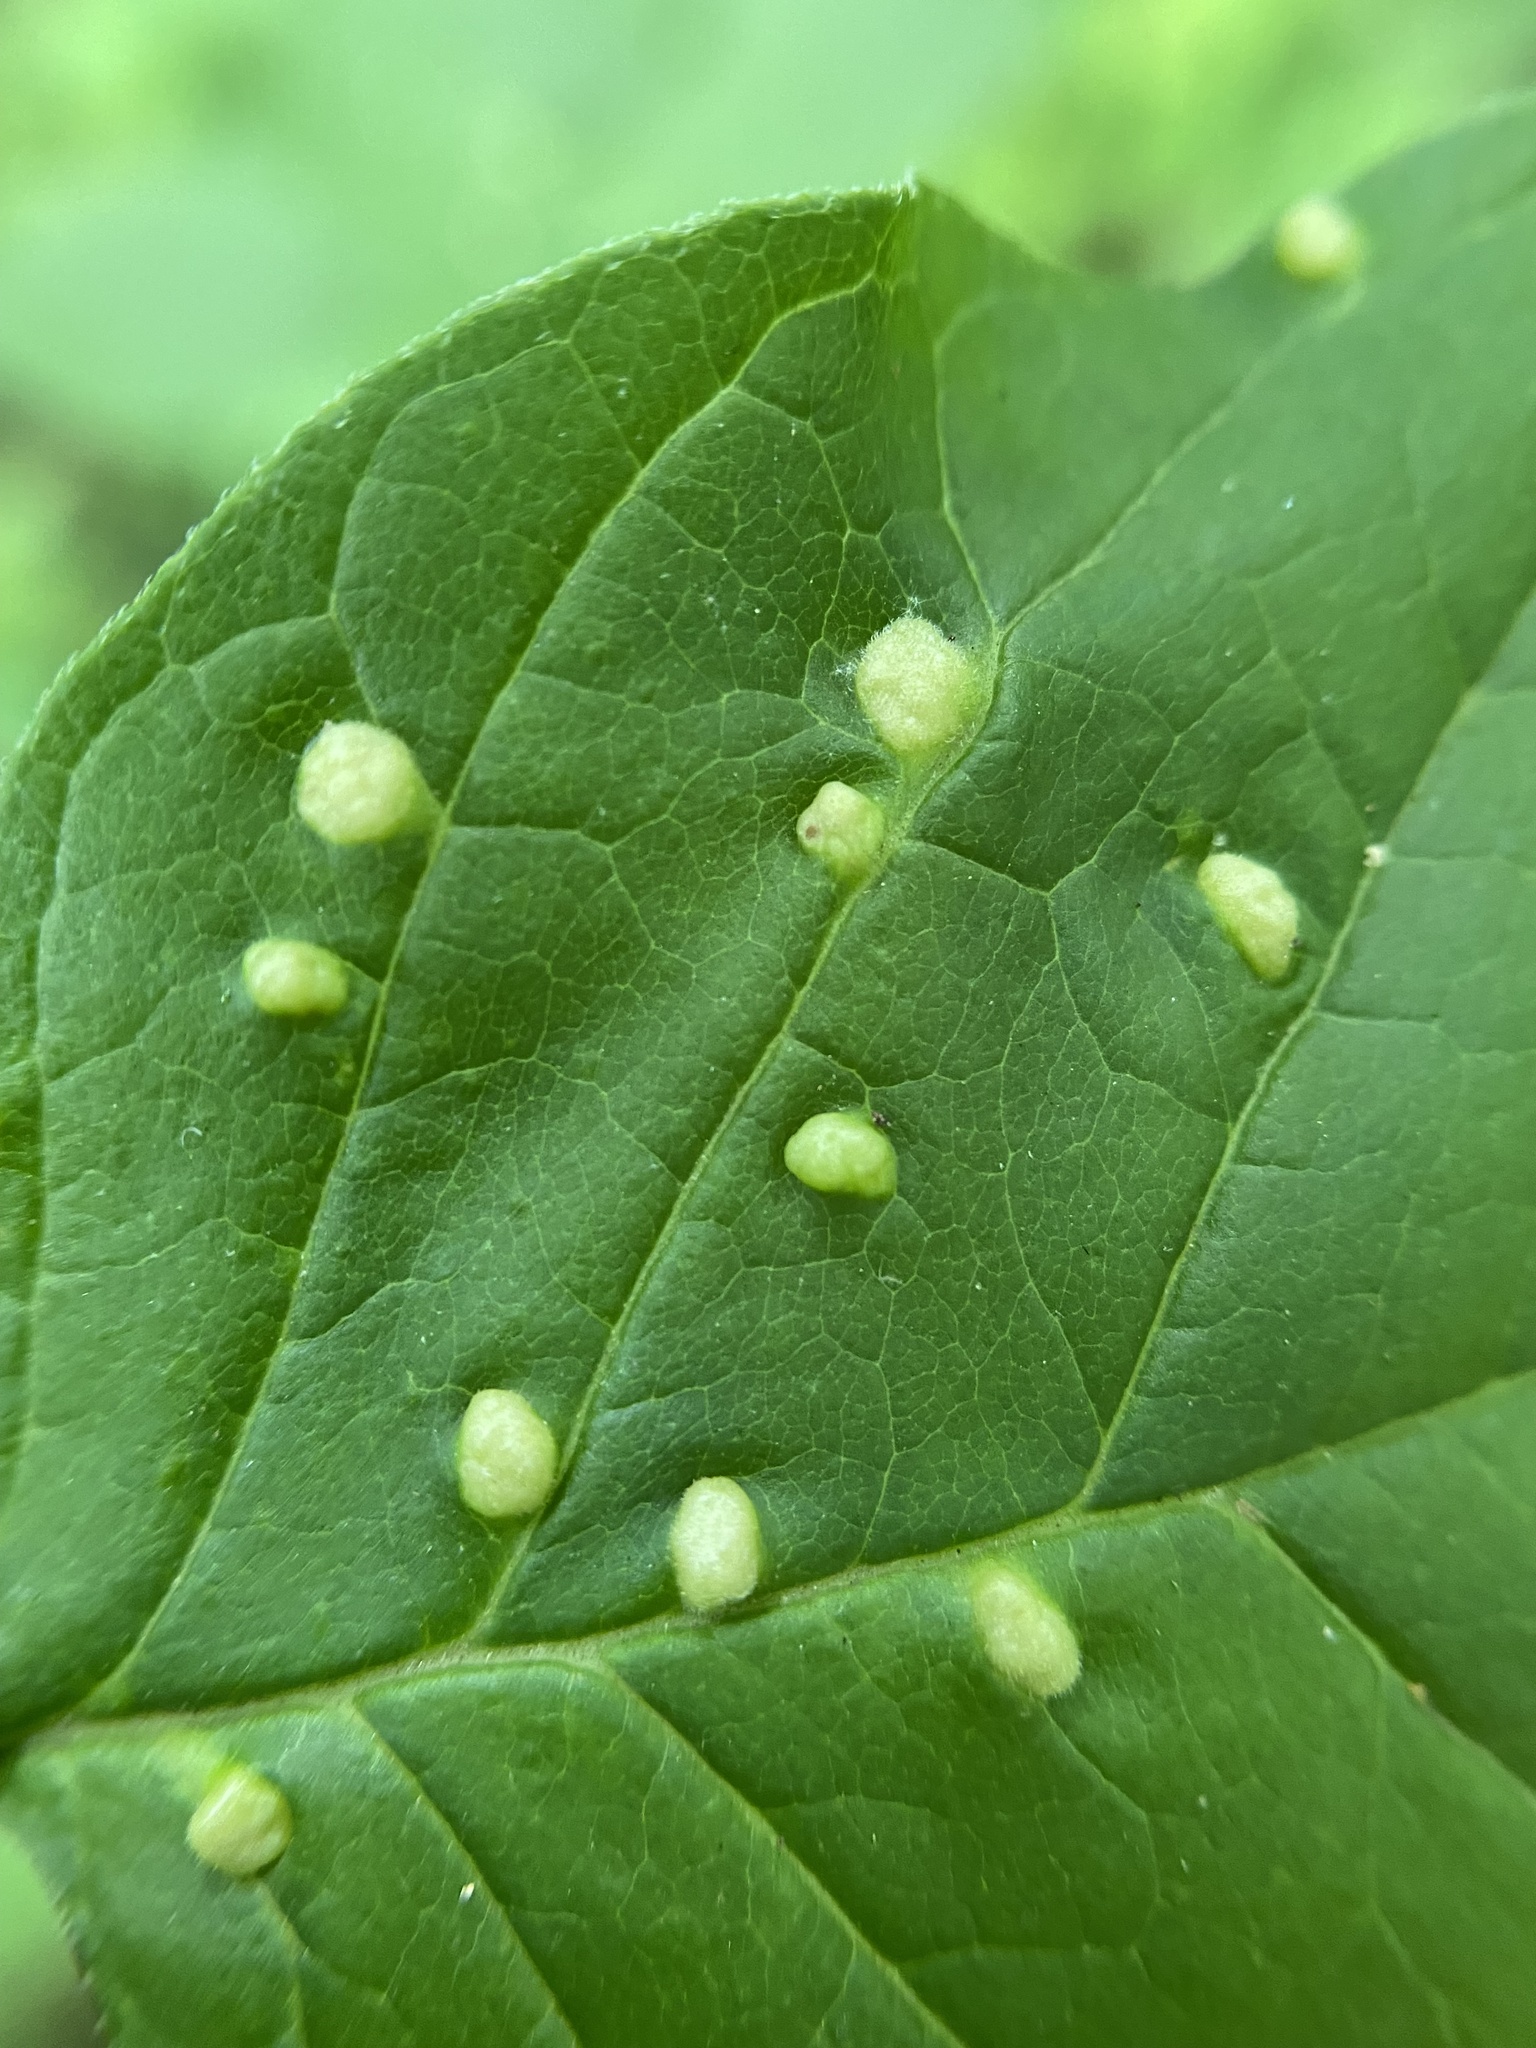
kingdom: Animalia
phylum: Arthropoda
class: Arachnida
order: Trombidiformes
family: Eriophyidae
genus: Aceria
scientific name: Aceria fraxinicola
